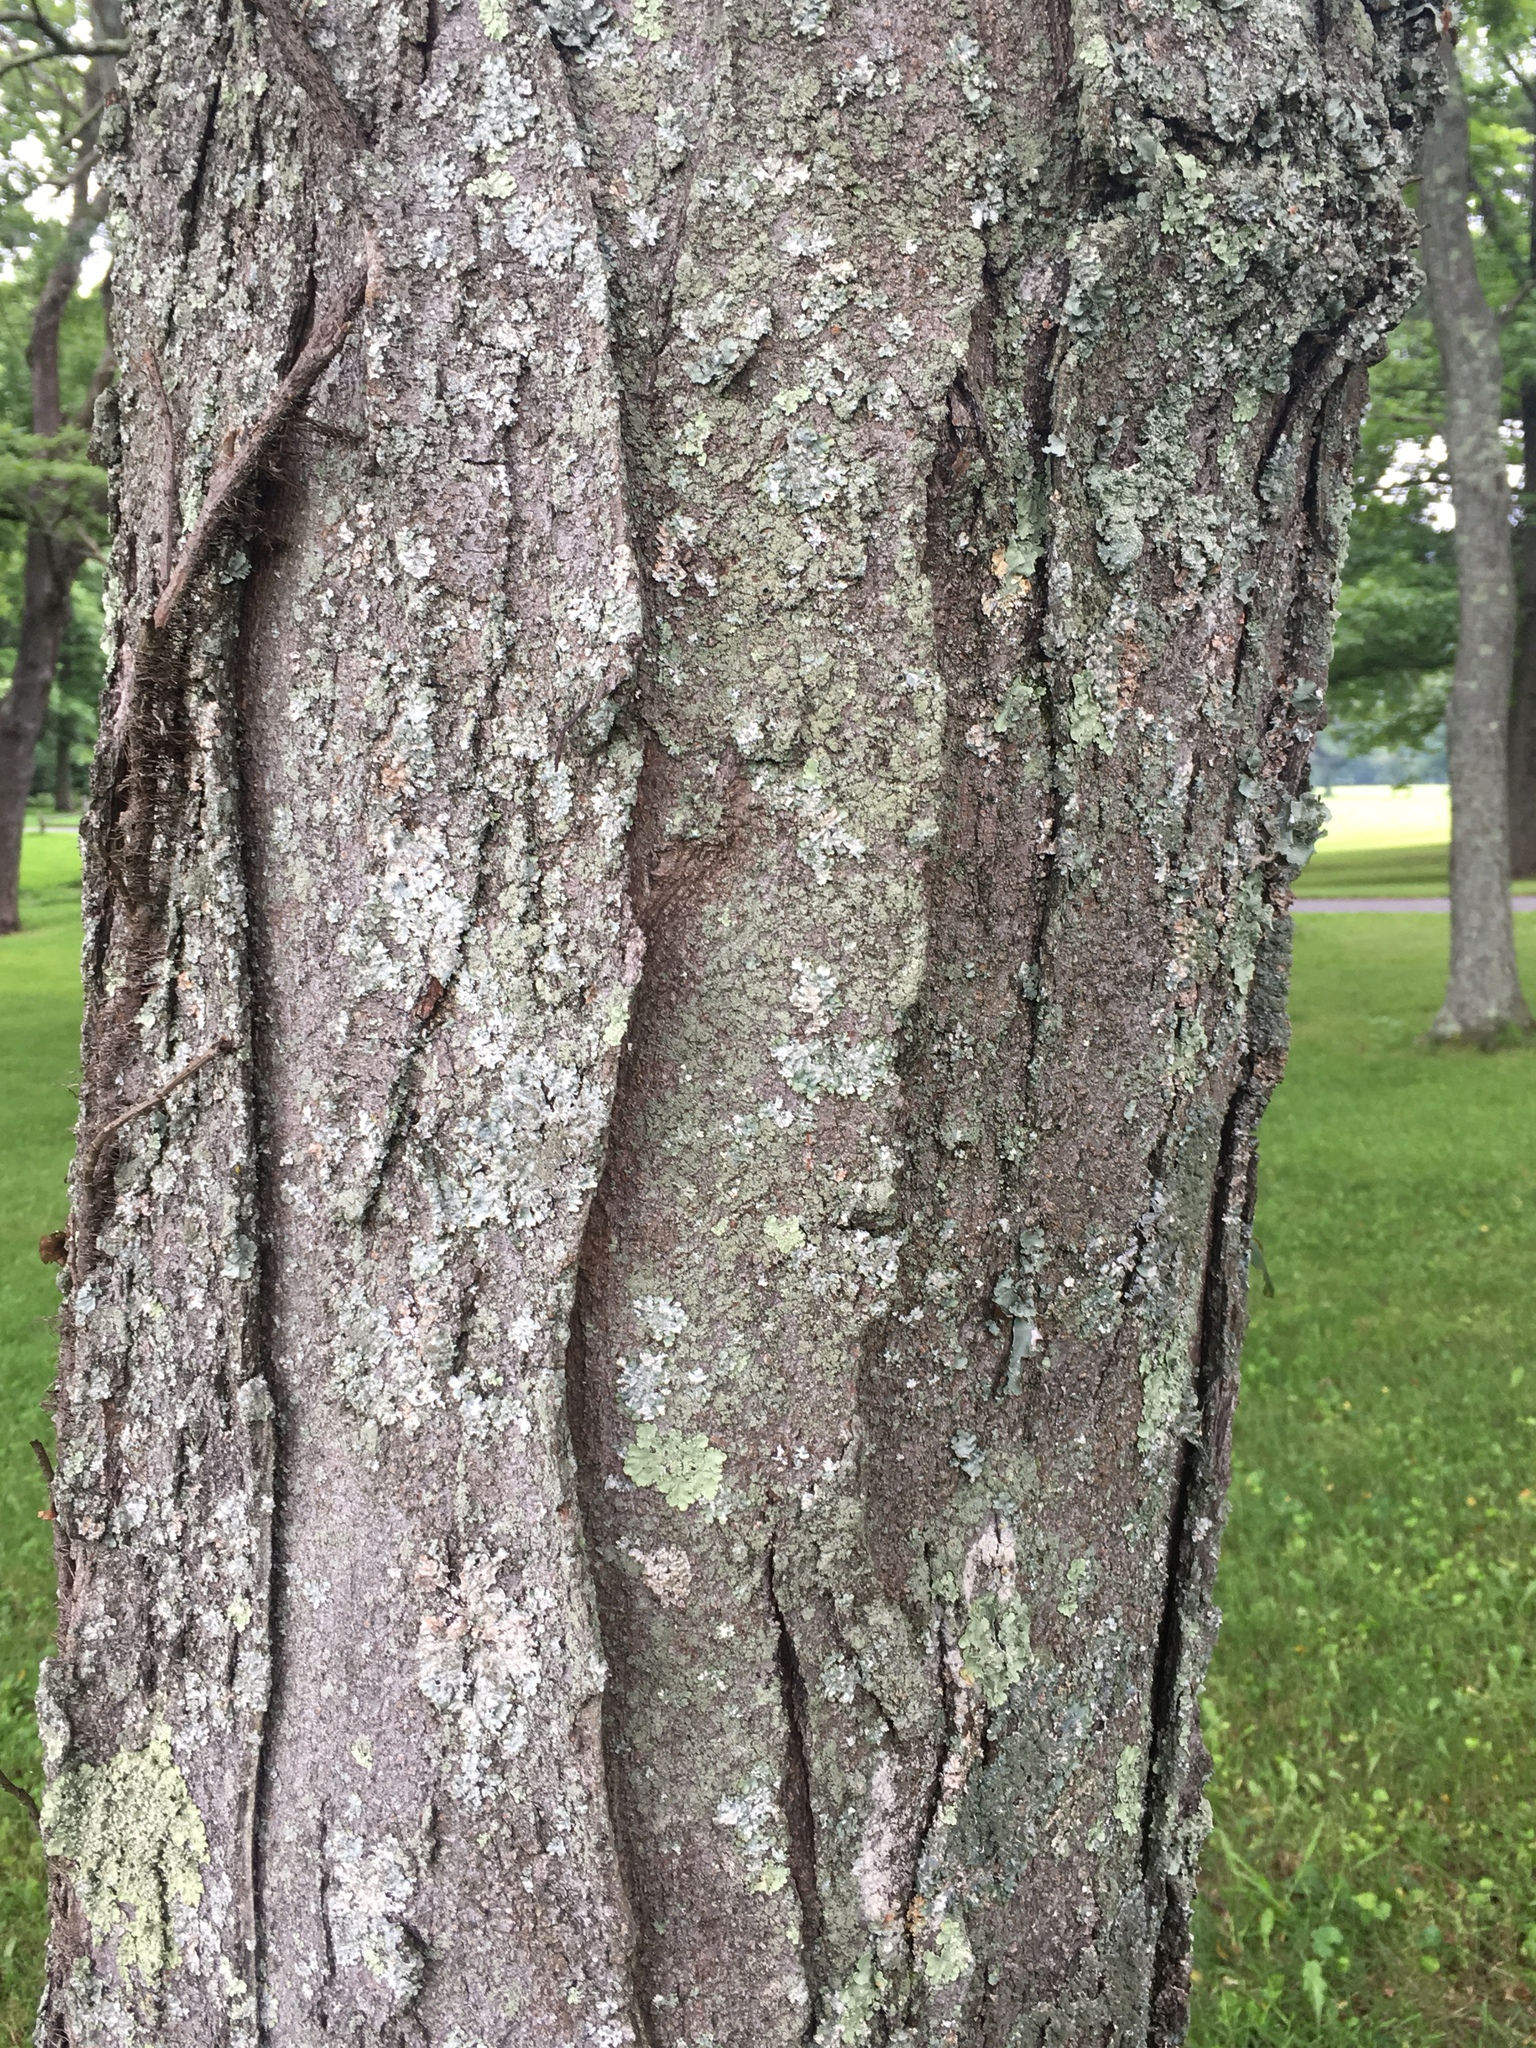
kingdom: Plantae
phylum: Tracheophyta
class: Magnoliopsida
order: Fabales
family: Fabaceae
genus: Gleditsia
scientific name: Gleditsia triacanthos
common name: Common honeylocust
